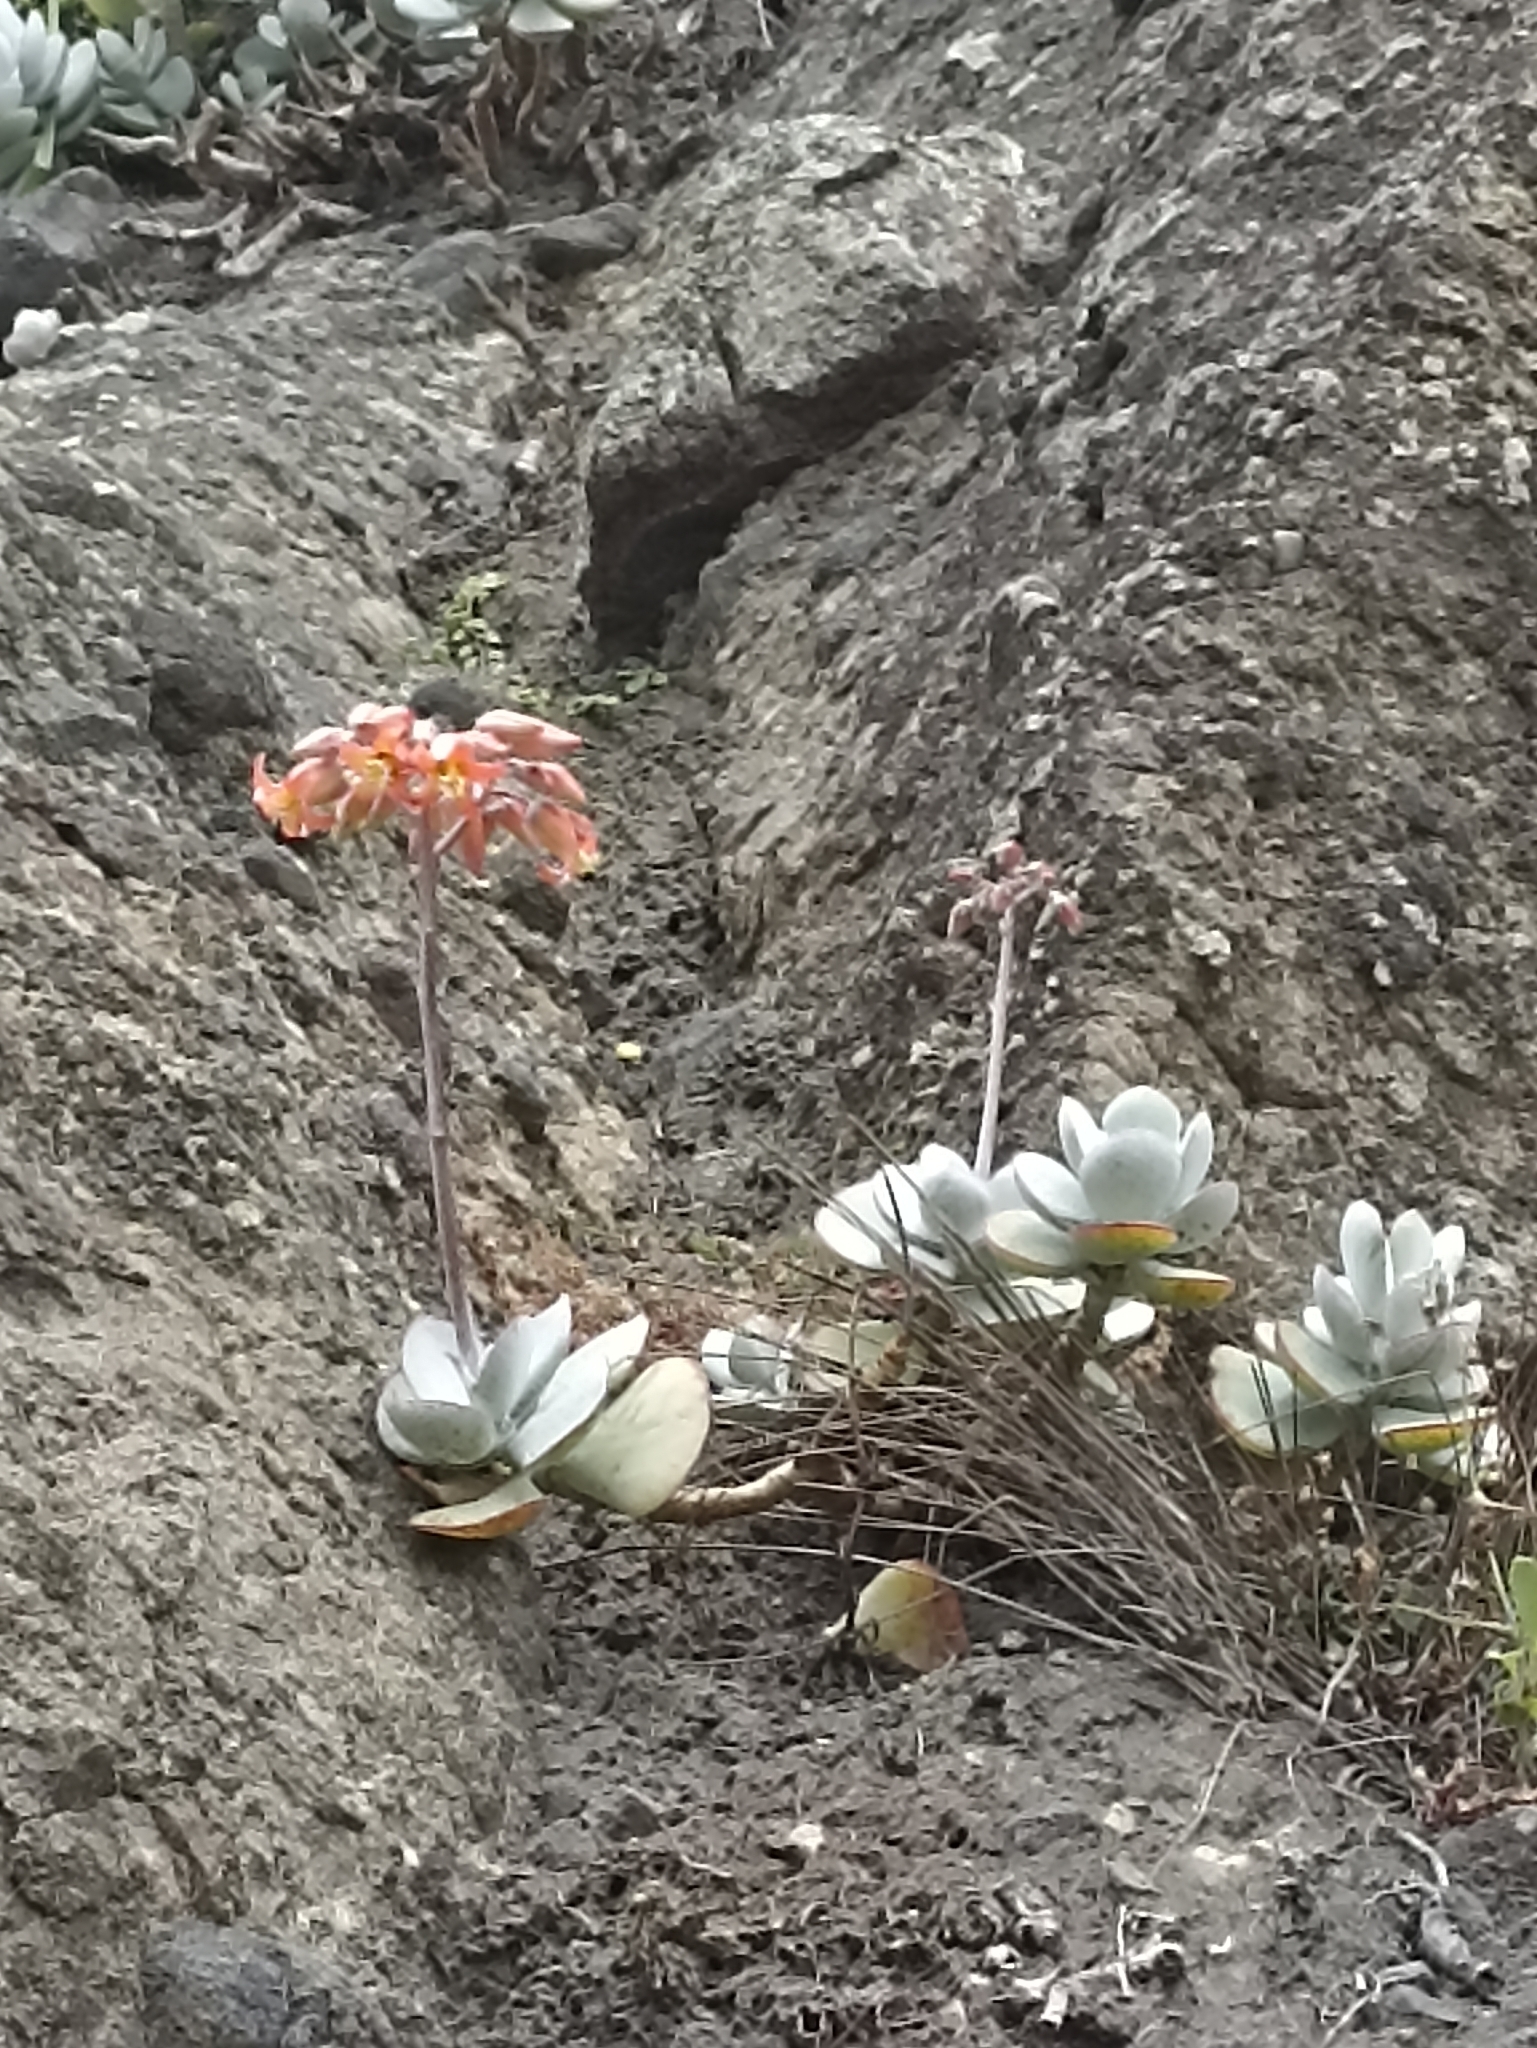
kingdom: Plantae
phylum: Tracheophyta
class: Magnoliopsida
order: Saxifragales
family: Crassulaceae
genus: Cotyledon
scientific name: Cotyledon orbiculata
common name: Pig's ear
